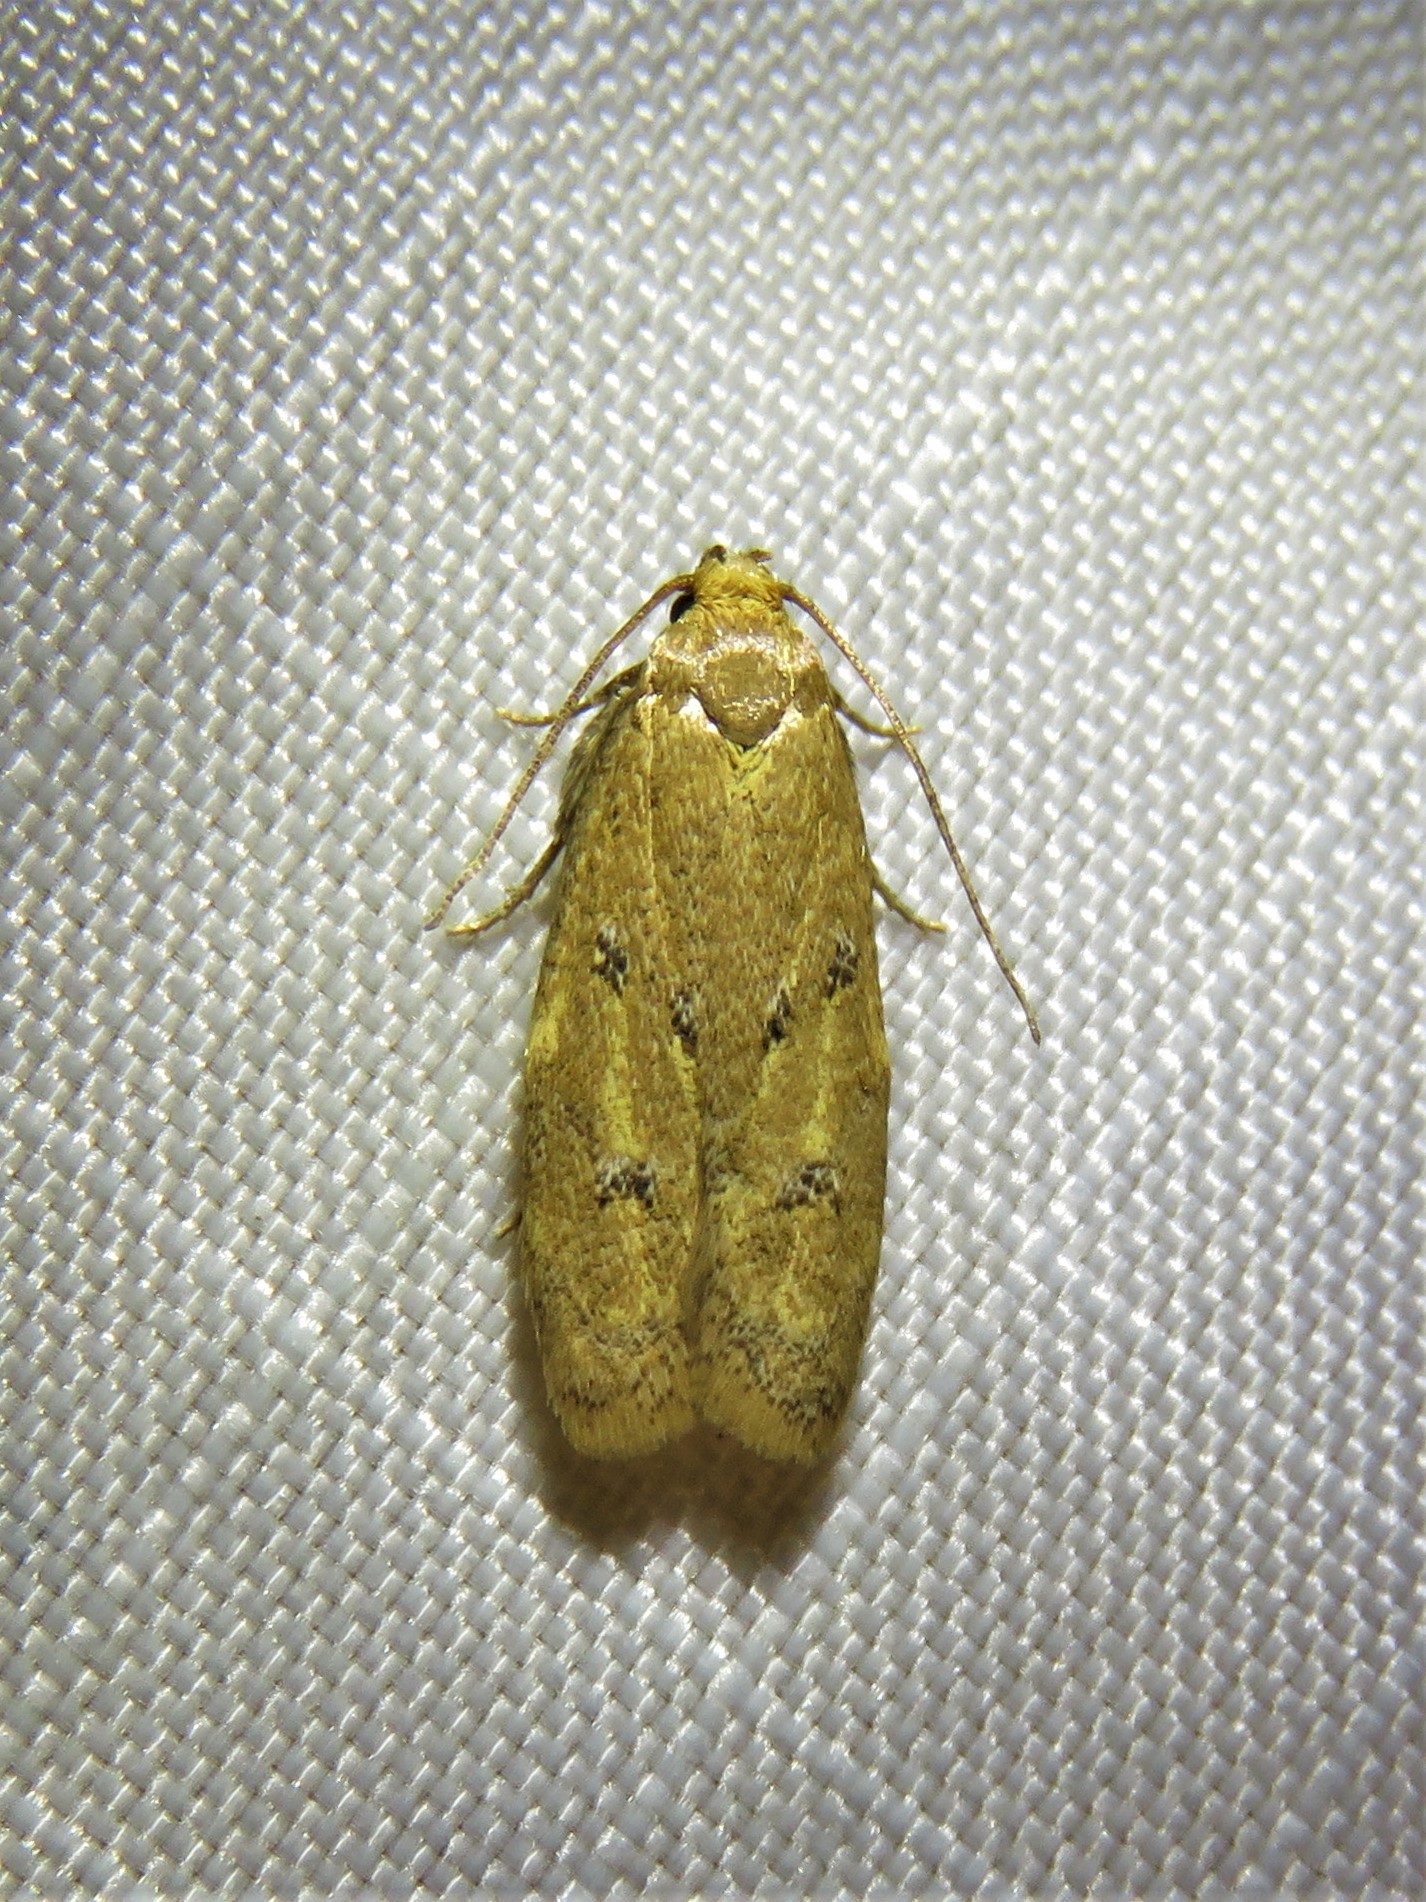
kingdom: Animalia
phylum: Arthropoda
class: Insecta
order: Lepidoptera
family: Autostichidae
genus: Gerdana
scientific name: Gerdana caritella
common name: Gerdana moth
